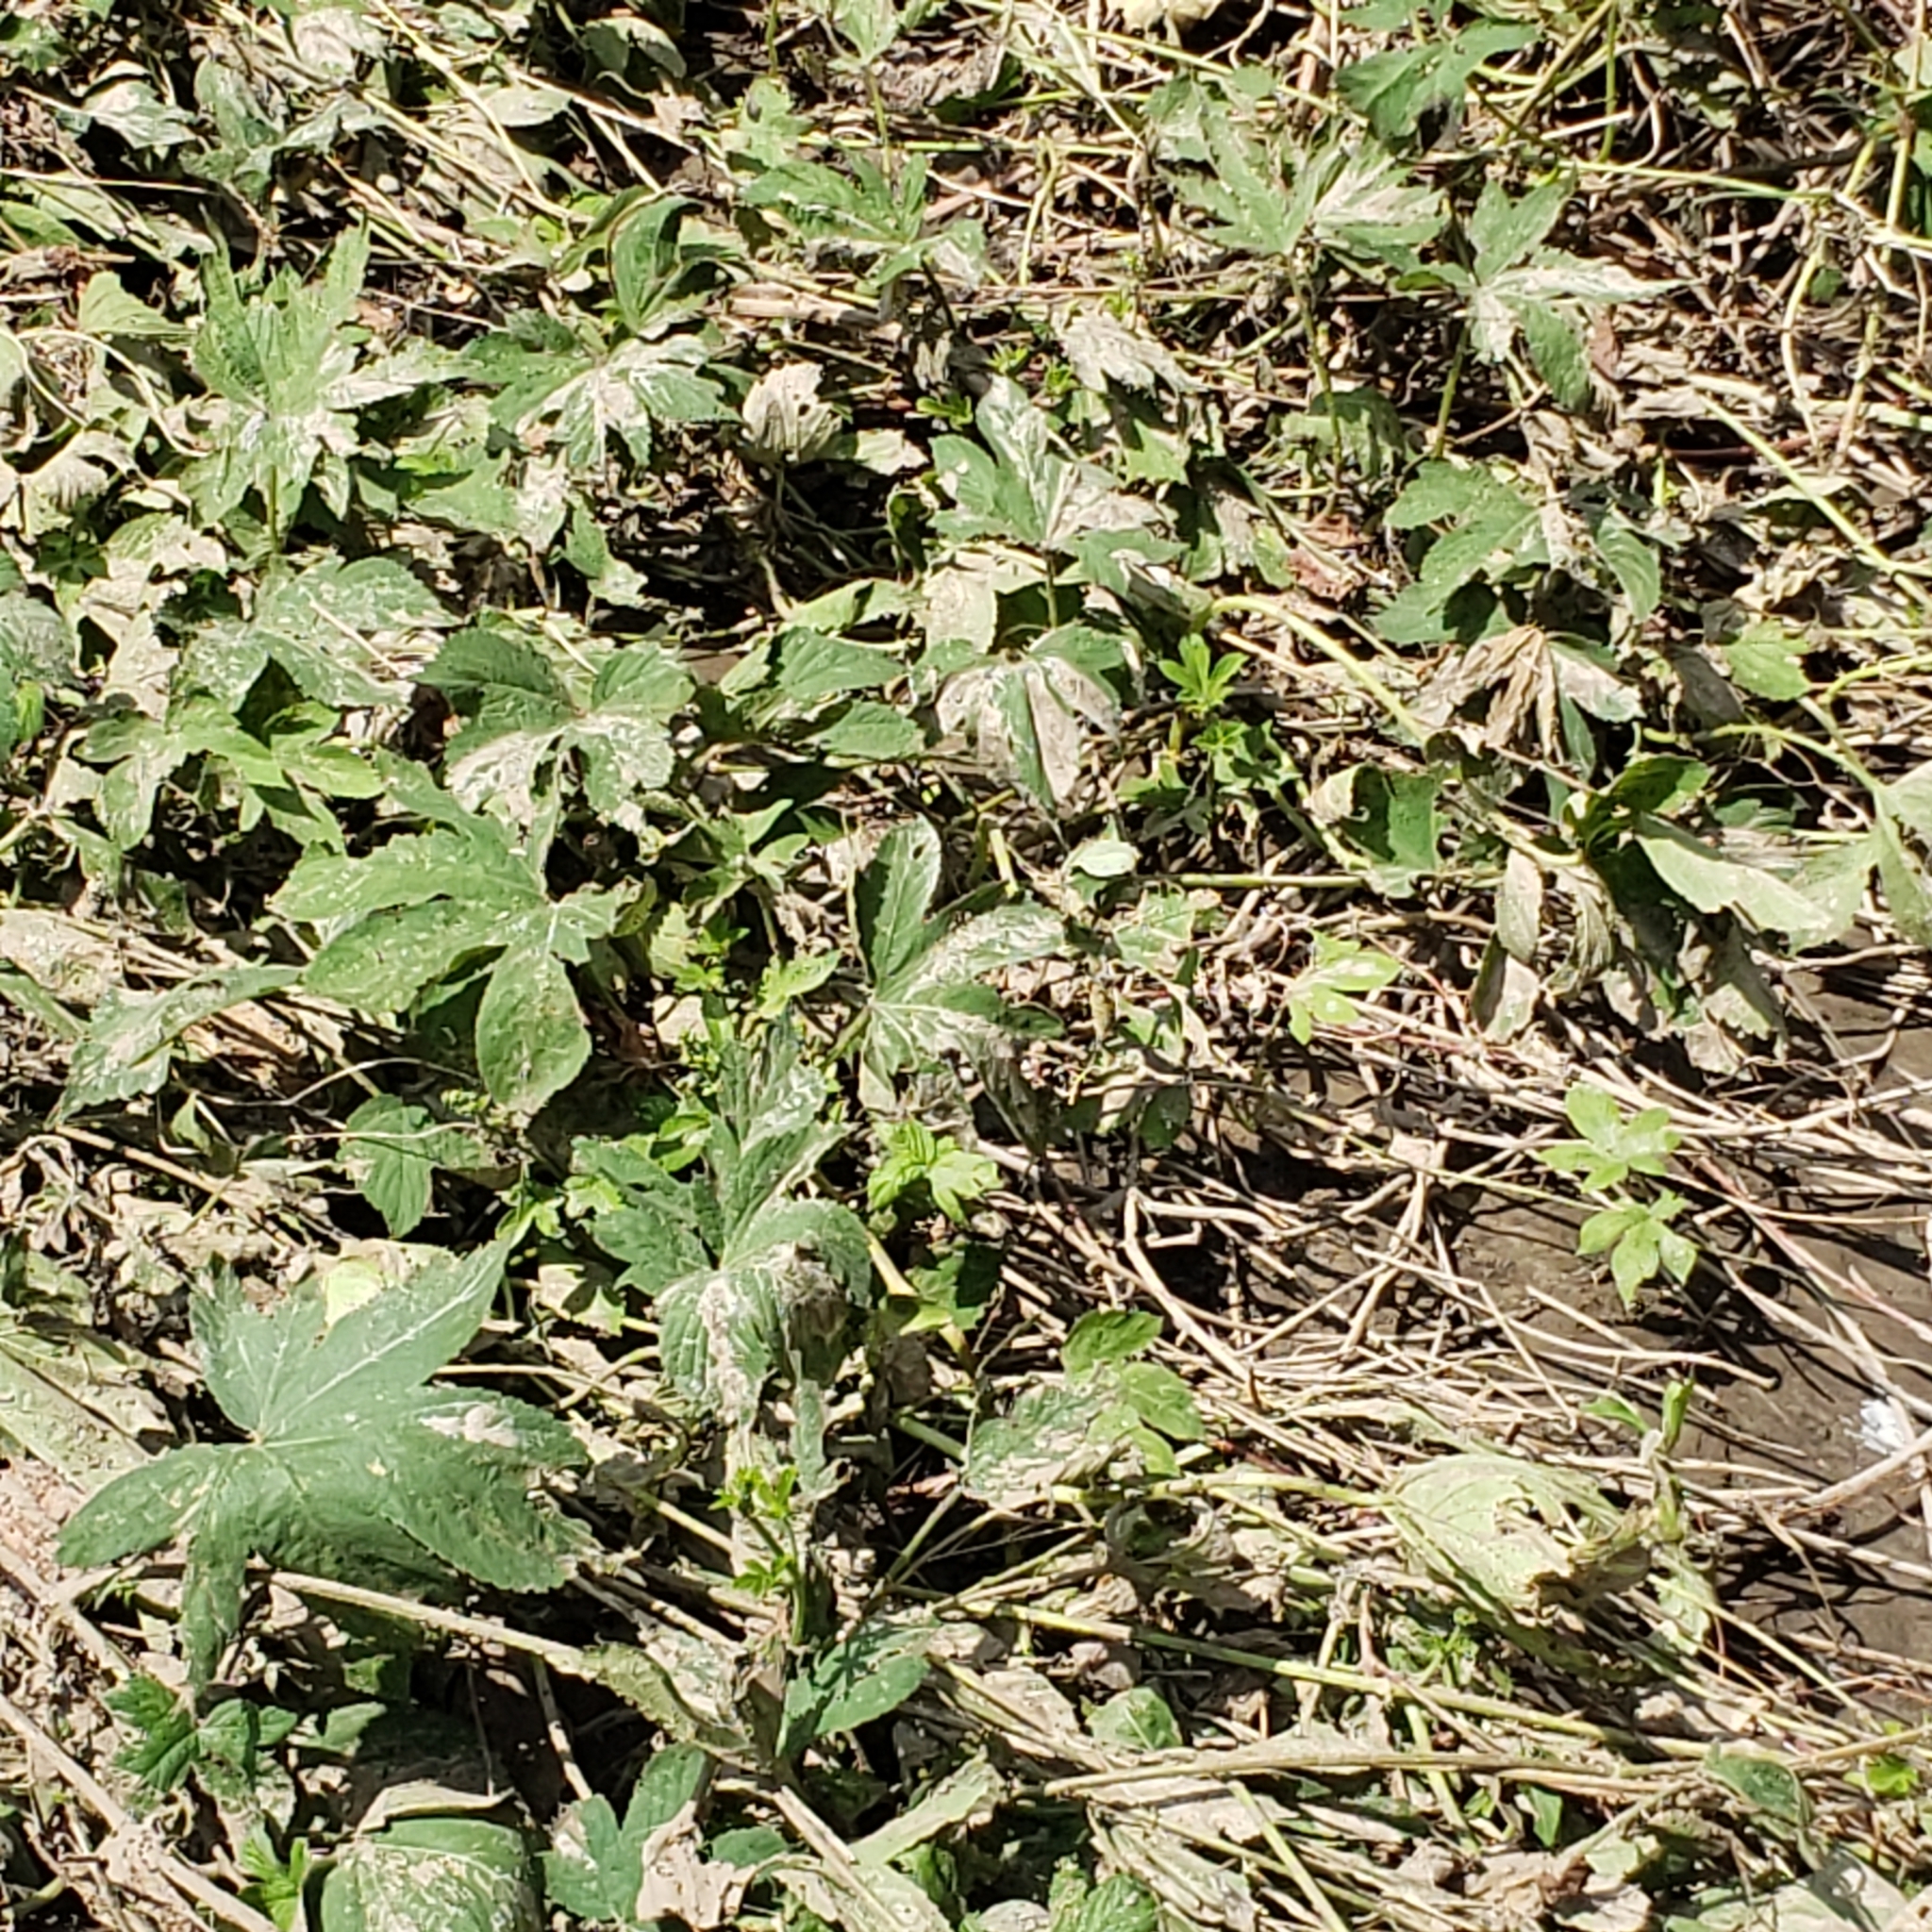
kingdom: Plantae
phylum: Tracheophyta
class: Magnoliopsida
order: Rosales
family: Cannabaceae
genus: Humulus
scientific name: Humulus scandens
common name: Japanese hop
